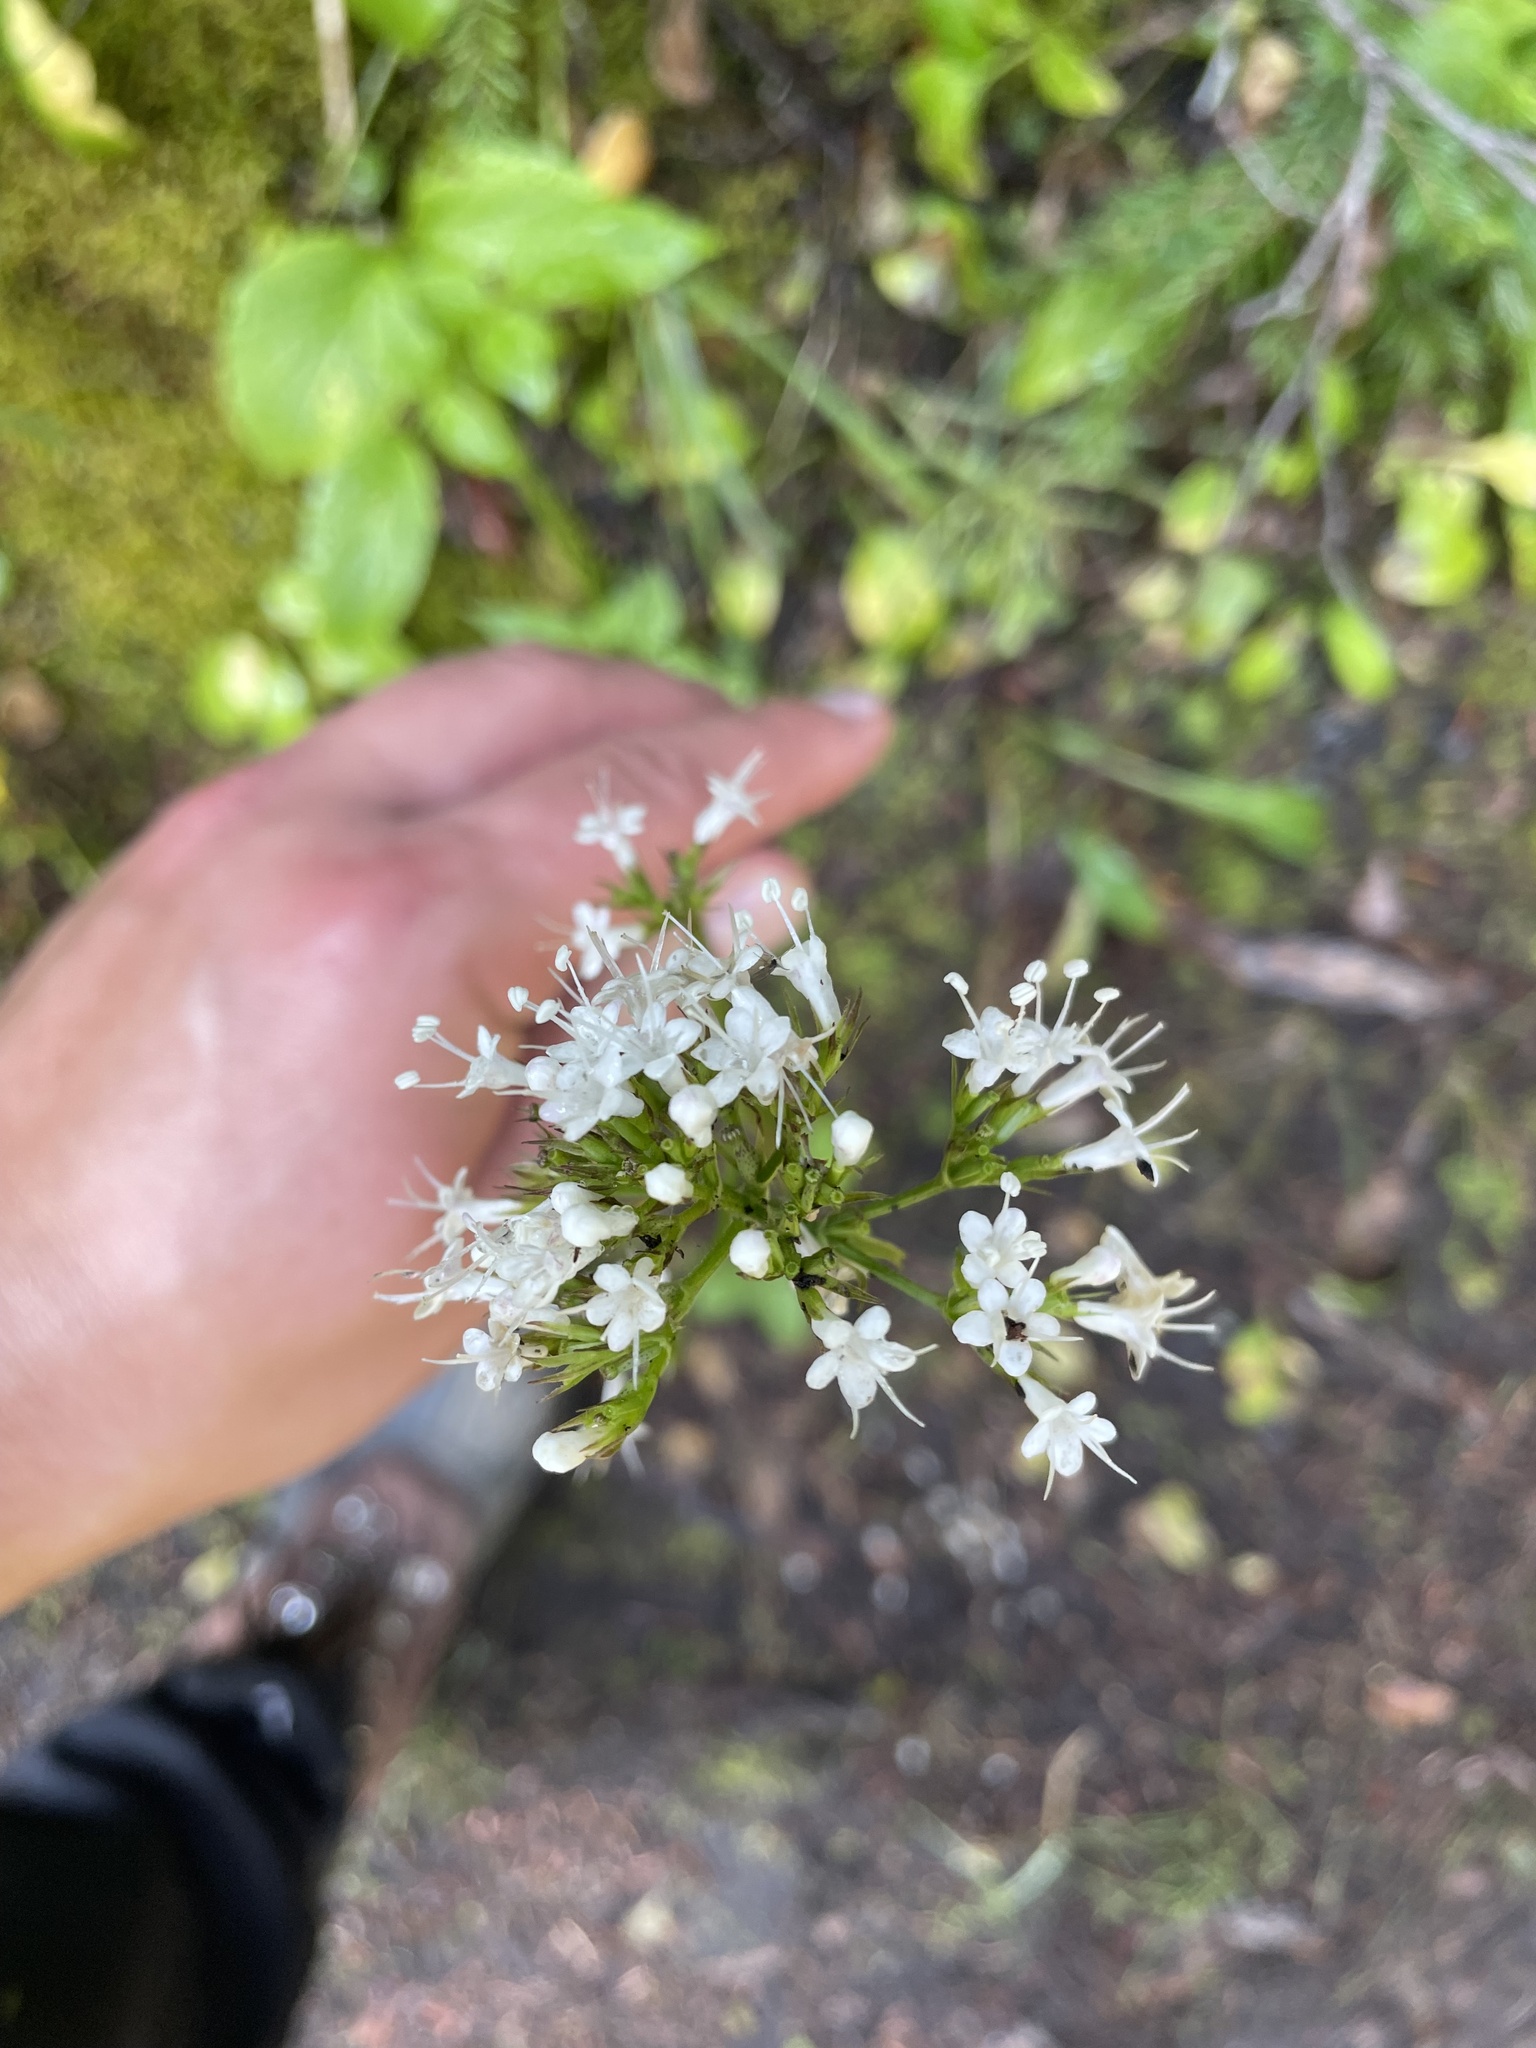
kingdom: Plantae
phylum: Tracheophyta
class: Magnoliopsida
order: Dipsacales
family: Caprifoliaceae
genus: Valeriana
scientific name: Valeriana sitchensis
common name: Pacific valerian
